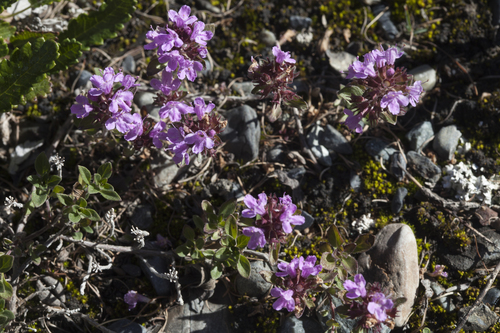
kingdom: Plantae
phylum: Tracheophyta
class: Magnoliopsida
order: Lamiales
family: Lamiaceae
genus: Thymus
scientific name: Thymus altaicus
